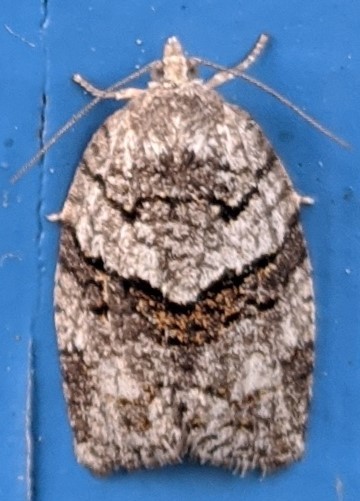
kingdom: Animalia
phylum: Arthropoda
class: Insecta
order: Lepidoptera
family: Tortricidae
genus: Syndemis
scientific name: Syndemis afflictana
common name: Gray leafroller moth
